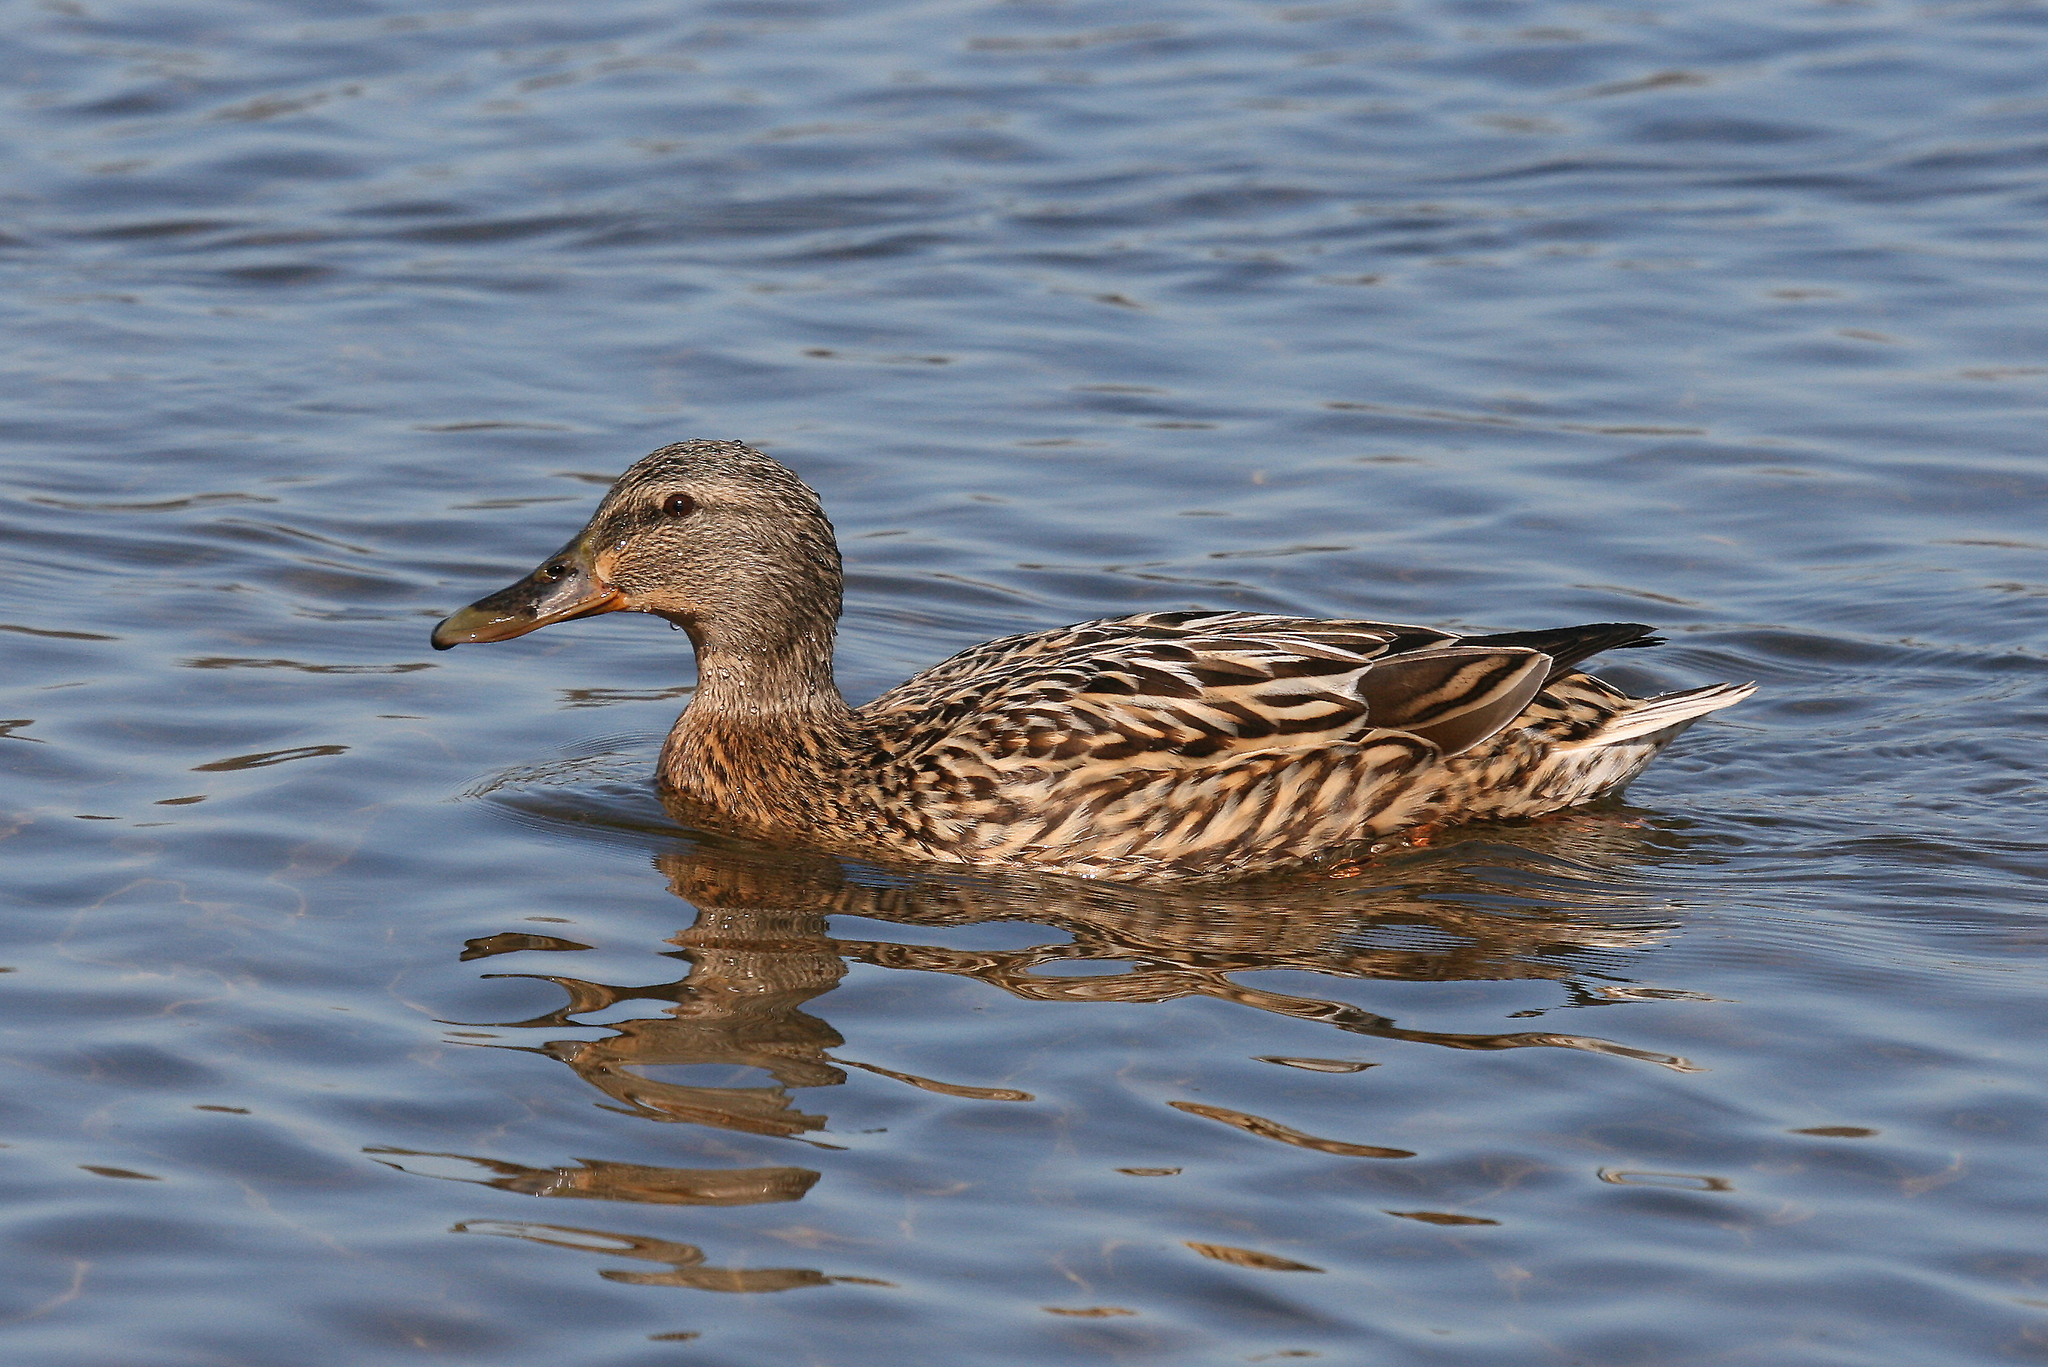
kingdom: Animalia
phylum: Chordata
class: Aves
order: Anseriformes
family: Anatidae
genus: Anas
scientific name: Anas platyrhynchos
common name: Mallard
